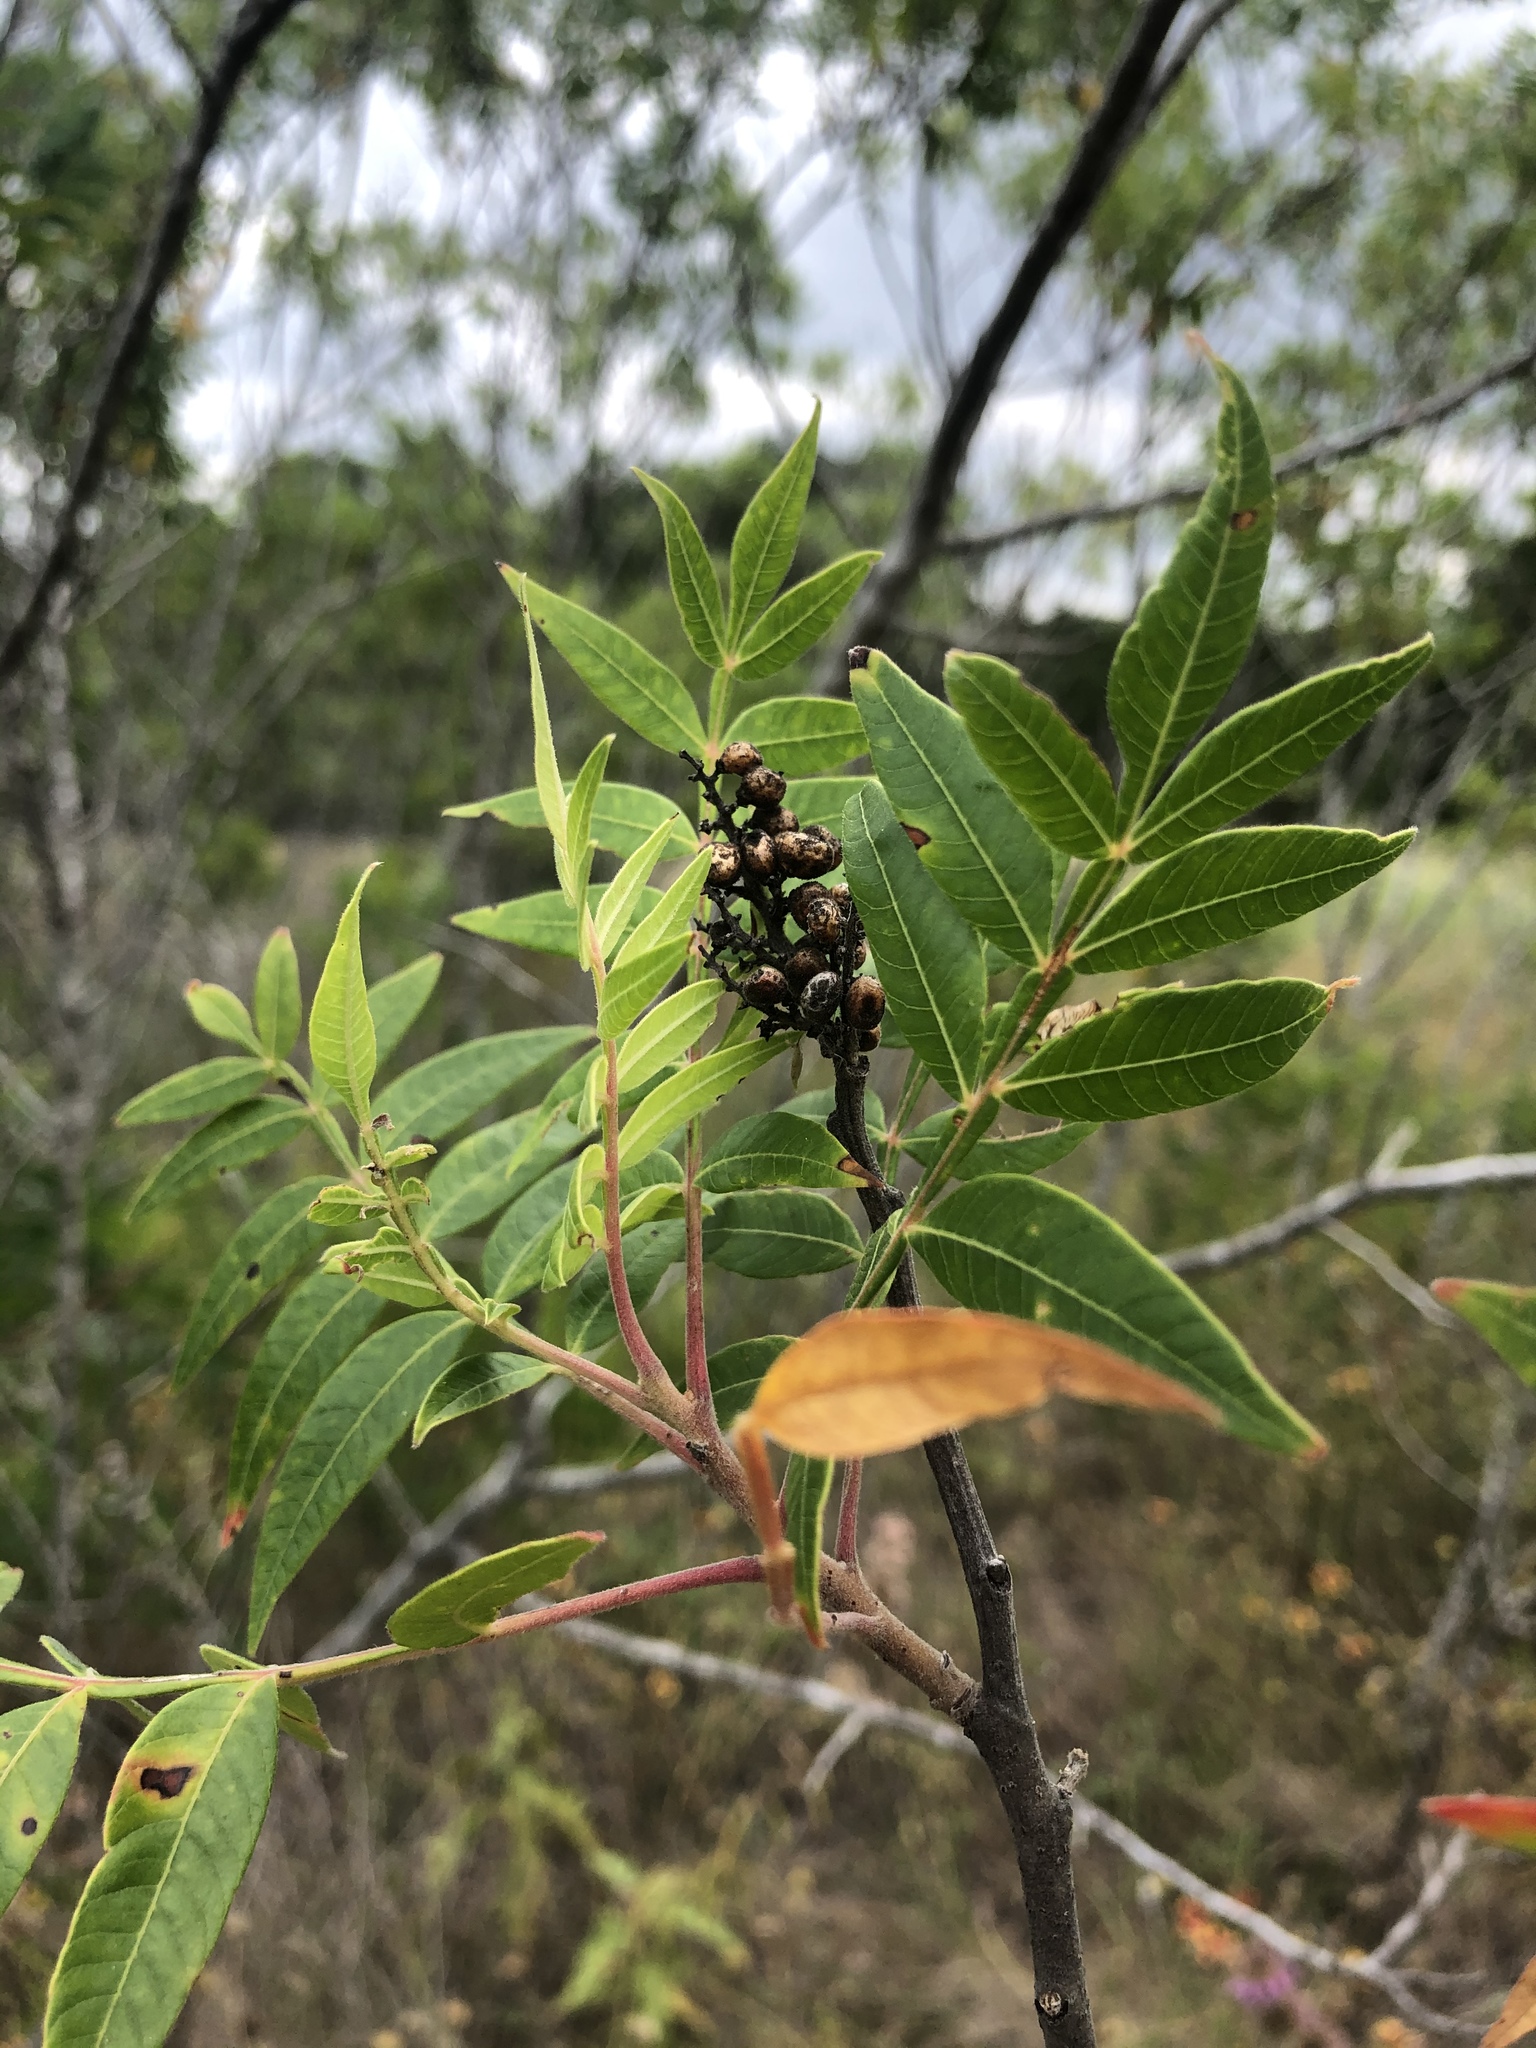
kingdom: Plantae
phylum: Tracheophyta
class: Magnoliopsida
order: Sapindales
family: Anacardiaceae
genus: Rhus
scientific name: Rhus lanceolata
